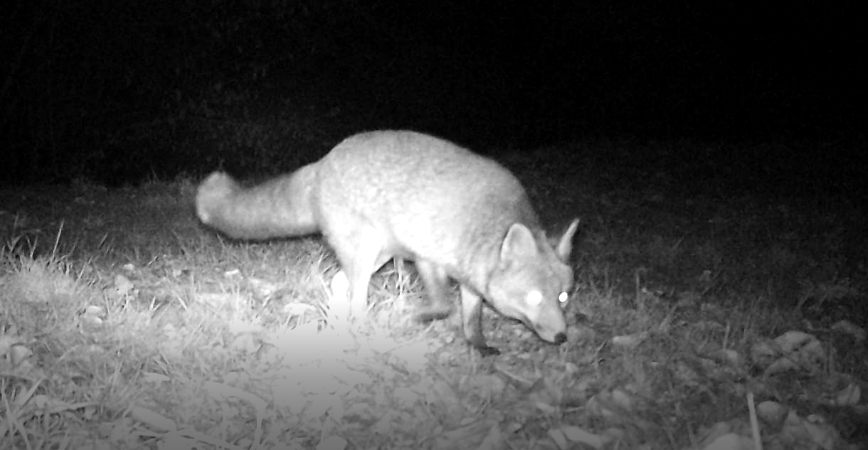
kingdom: Animalia
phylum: Chordata
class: Mammalia
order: Carnivora
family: Canidae
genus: Vulpes
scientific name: Vulpes vulpes
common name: Red fox
